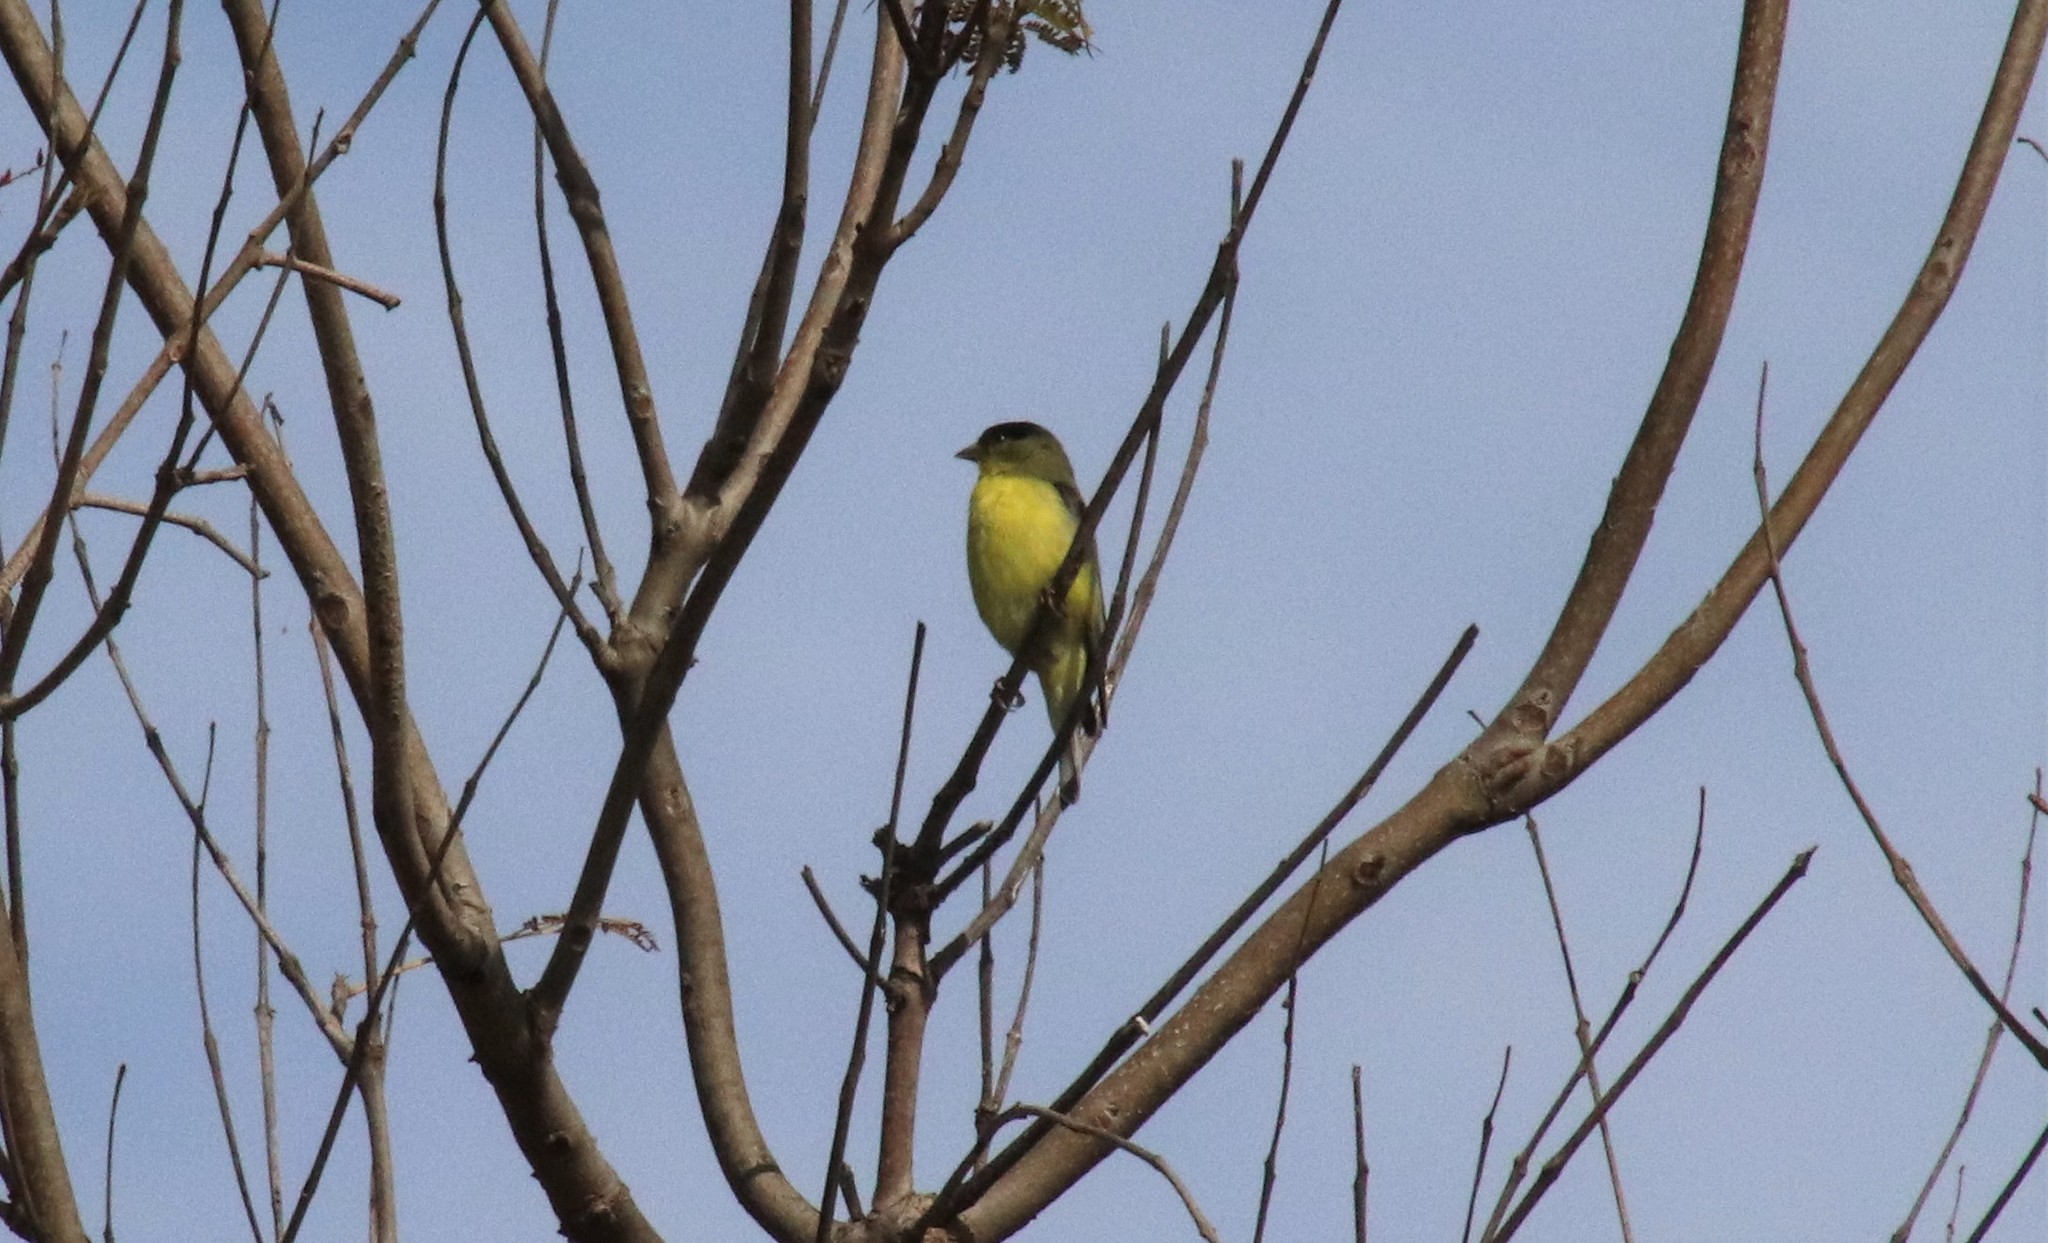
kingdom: Animalia
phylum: Chordata
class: Aves
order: Passeriformes
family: Fringillidae
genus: Spinus
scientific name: Spinus psaltria
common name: Lesser goldfinch
